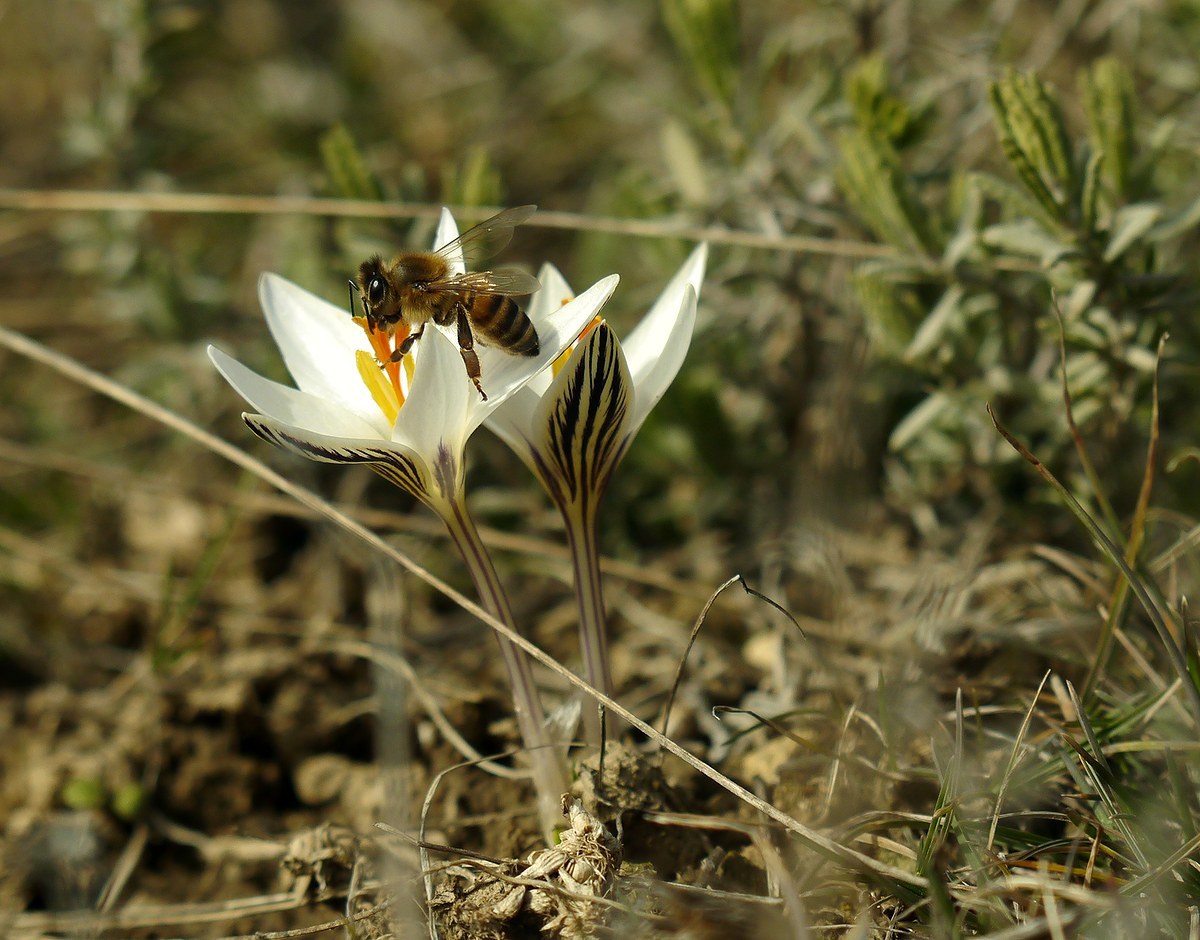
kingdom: Animalia
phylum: Arthropoda
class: Insecta
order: Hymenoptera
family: Apidae
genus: Apis
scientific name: Apis mellifera
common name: Honey bee
